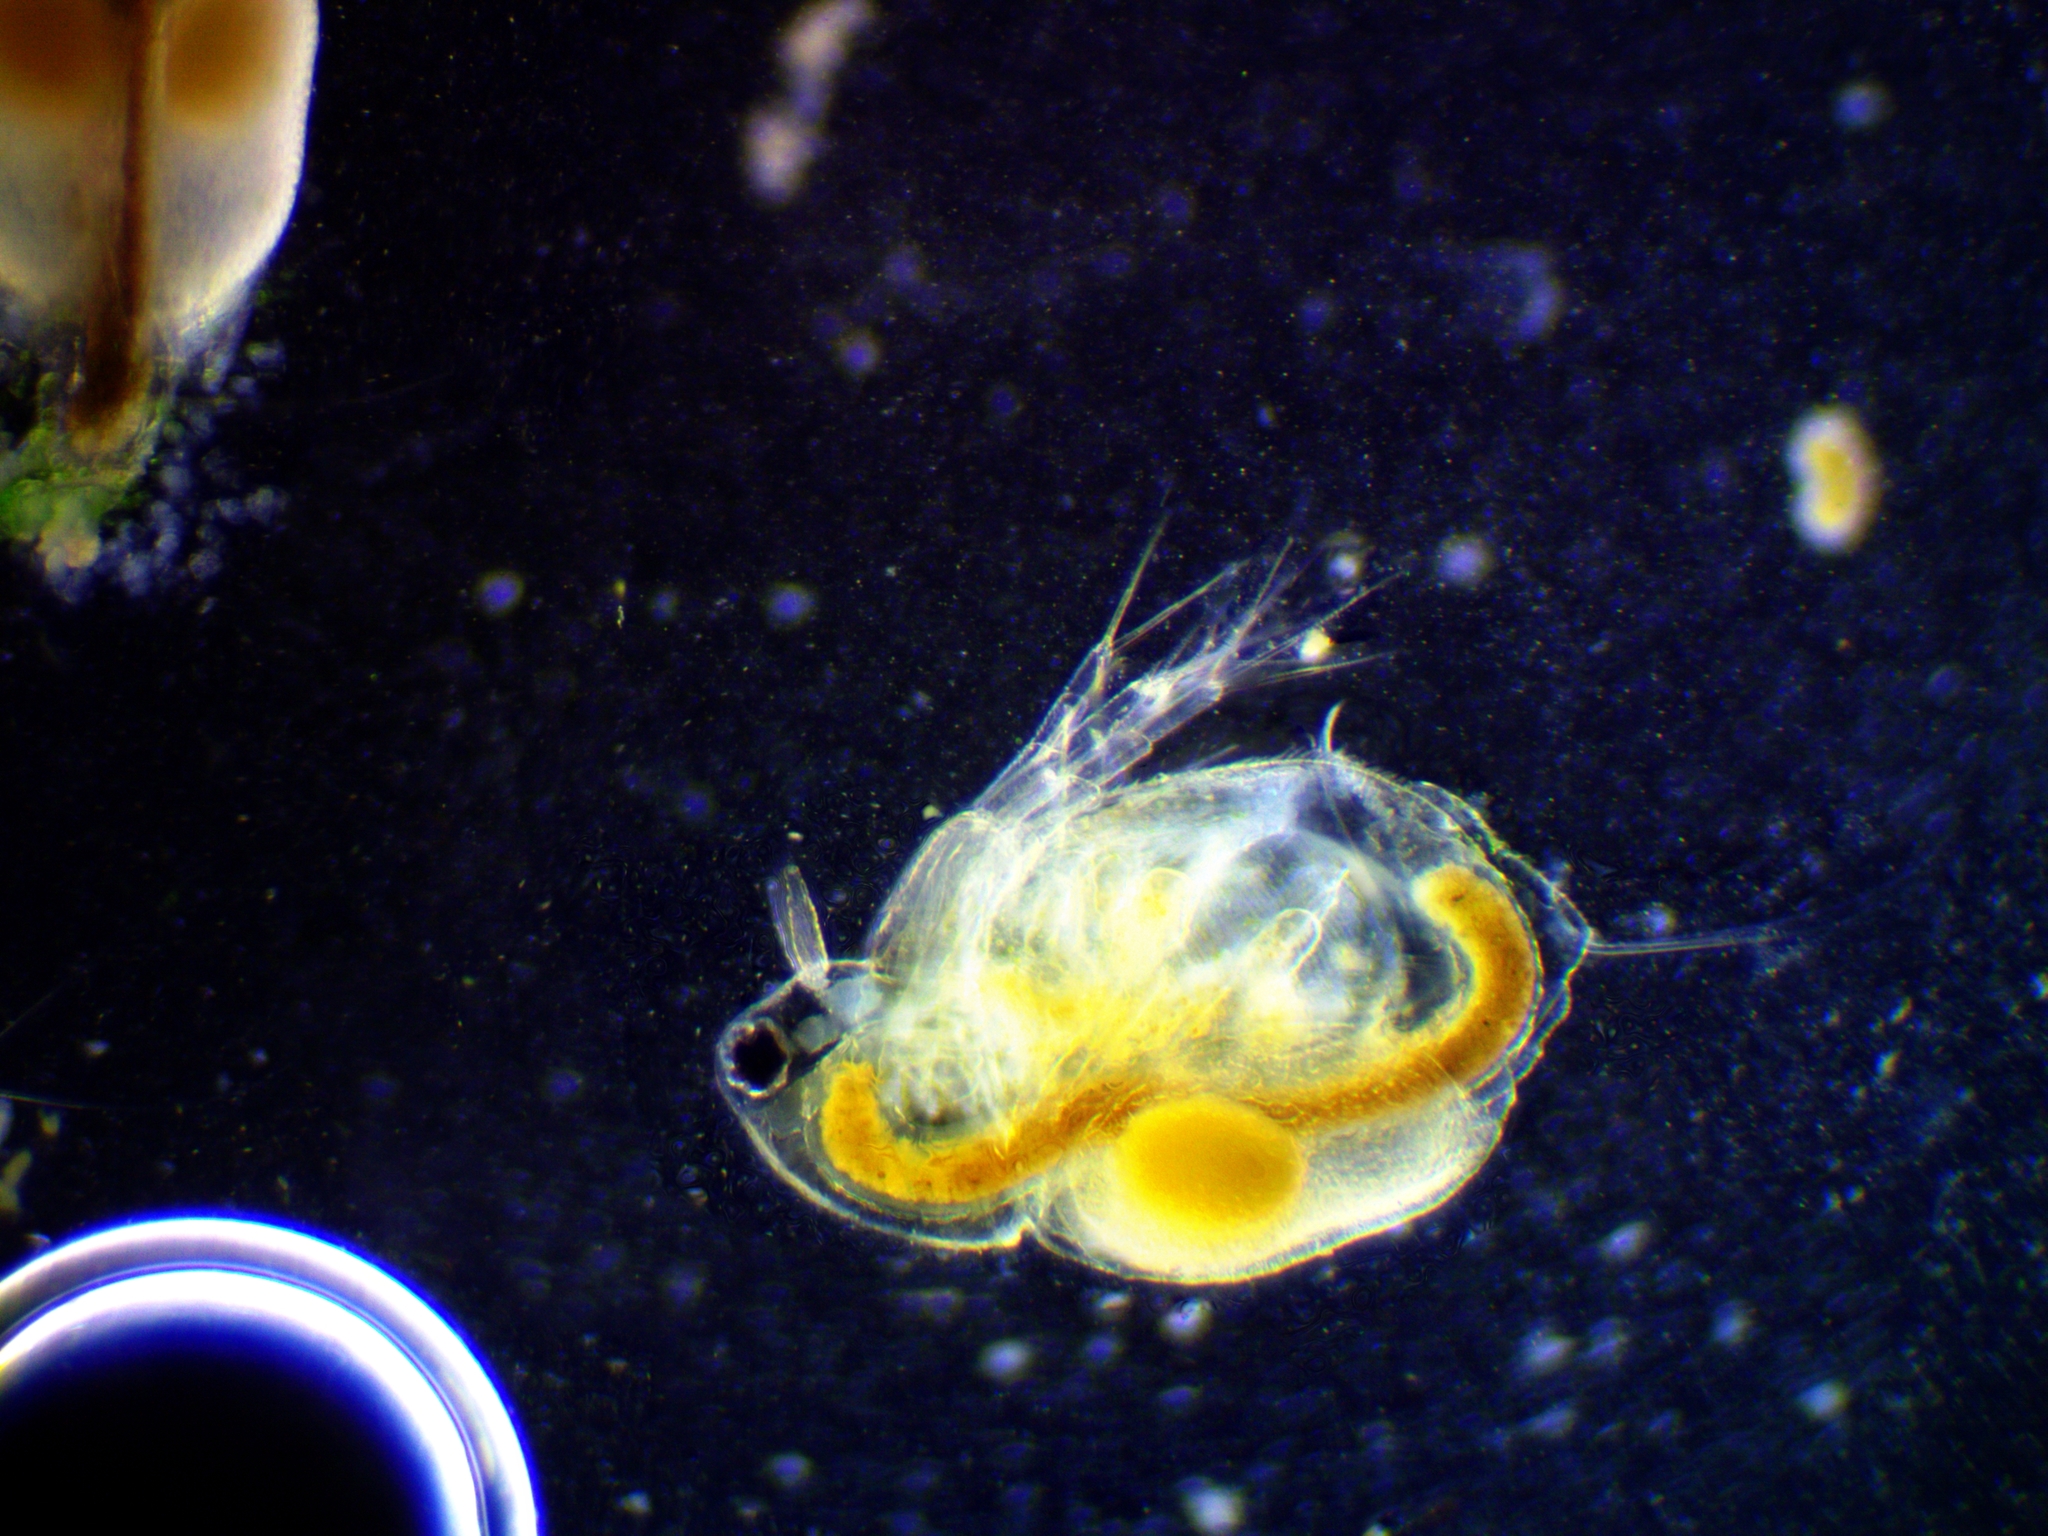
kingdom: Animalia
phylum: Arthropoda
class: Branchiopoda
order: Diplostraca
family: Moinidae
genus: Moina
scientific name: Moina macrocopa
